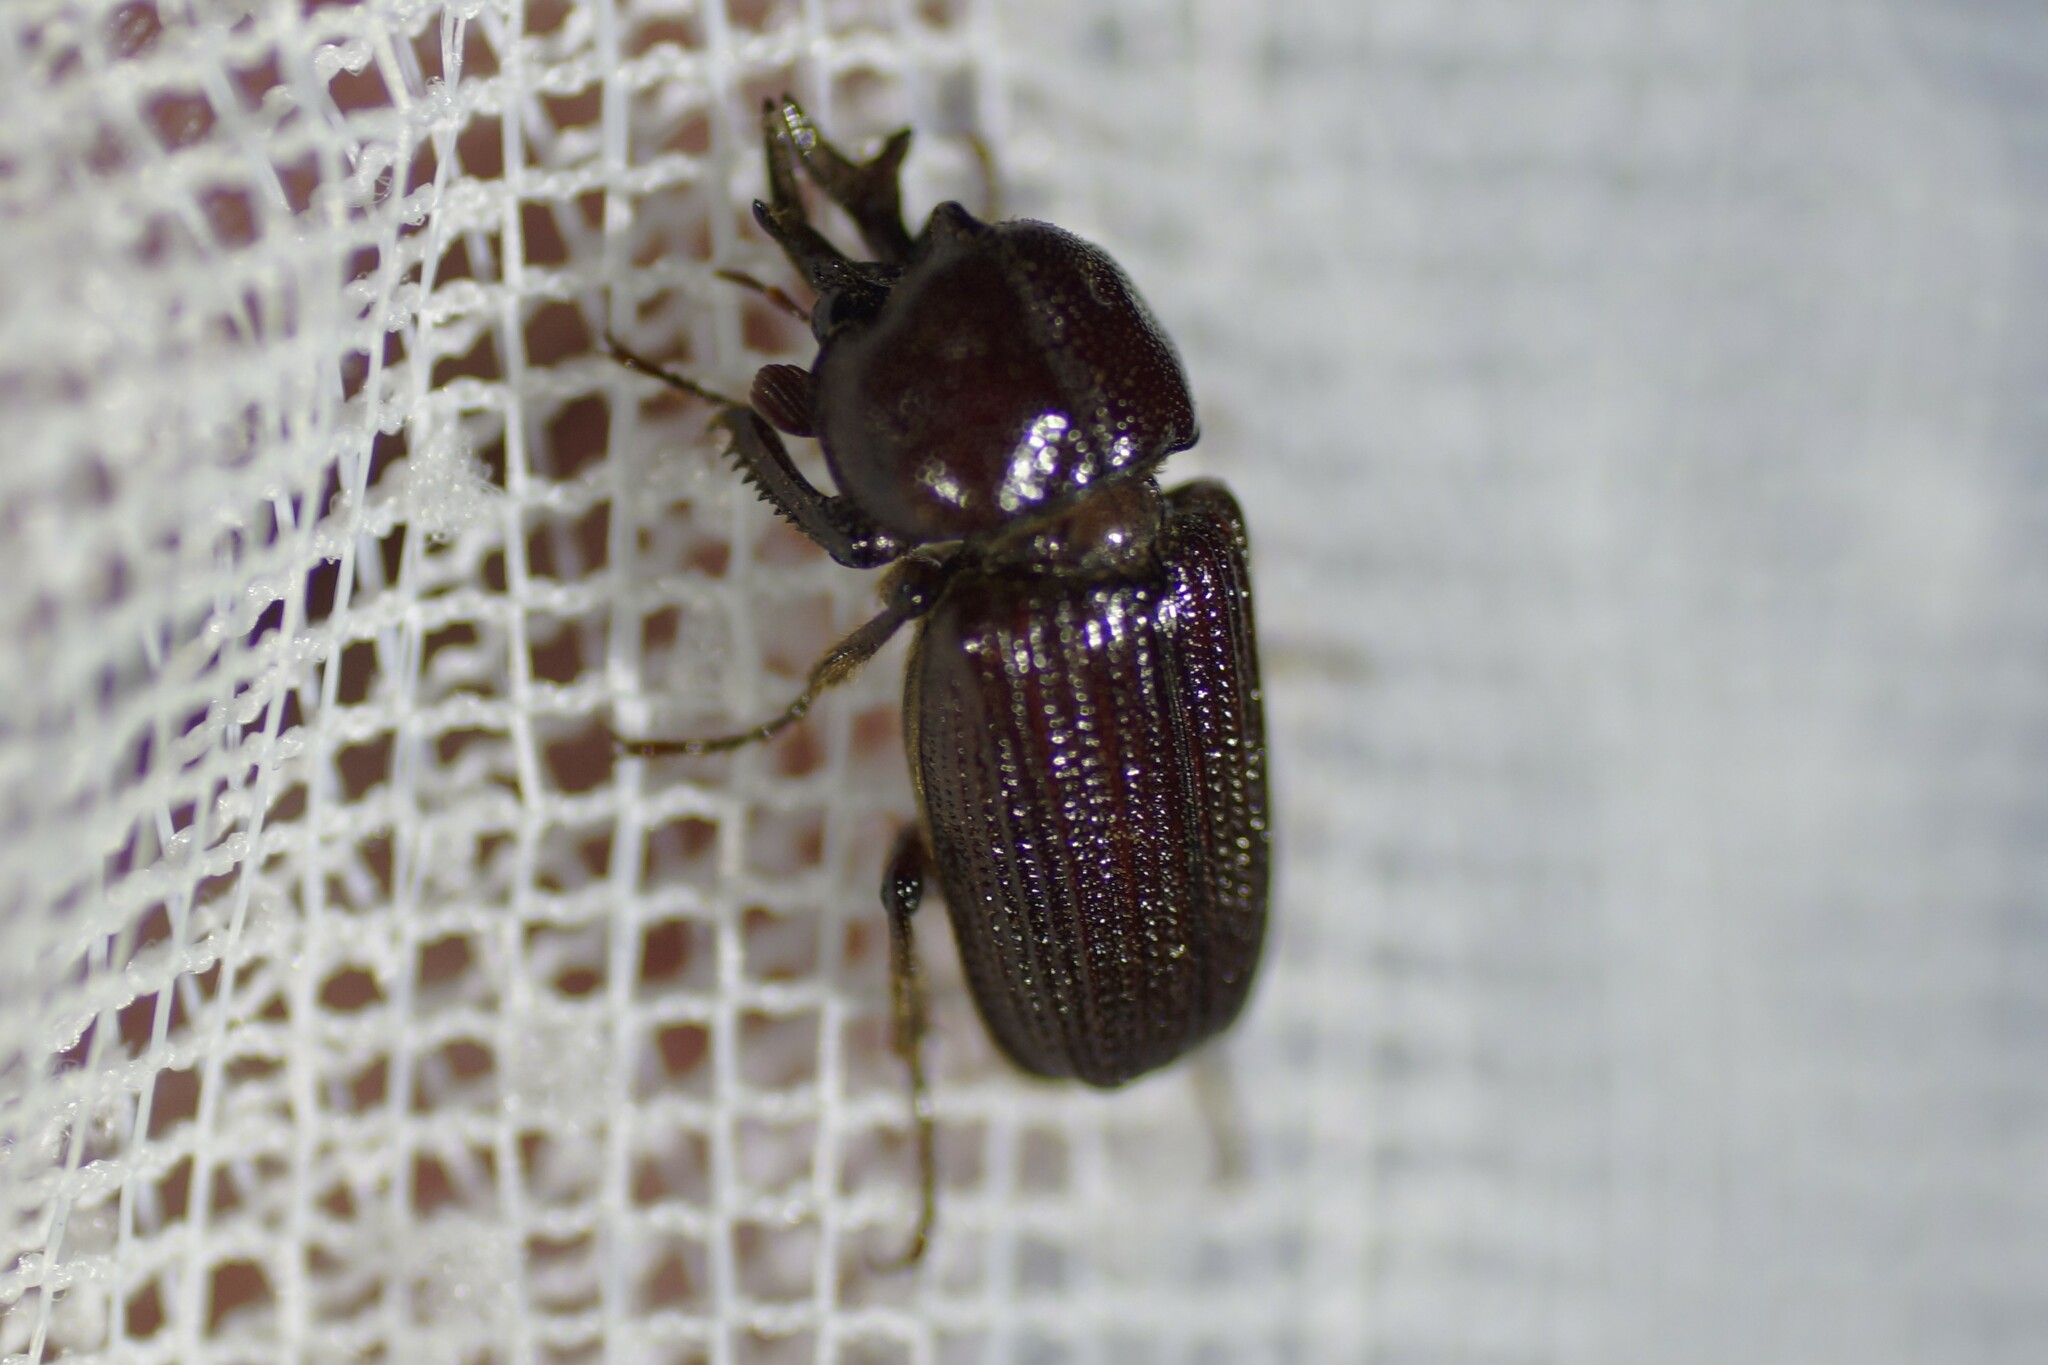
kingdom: Animalia
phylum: Arthropoda
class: Insecta
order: Coleoptera
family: Lucanidae
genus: Syndesus
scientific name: Syndesus cornutus
